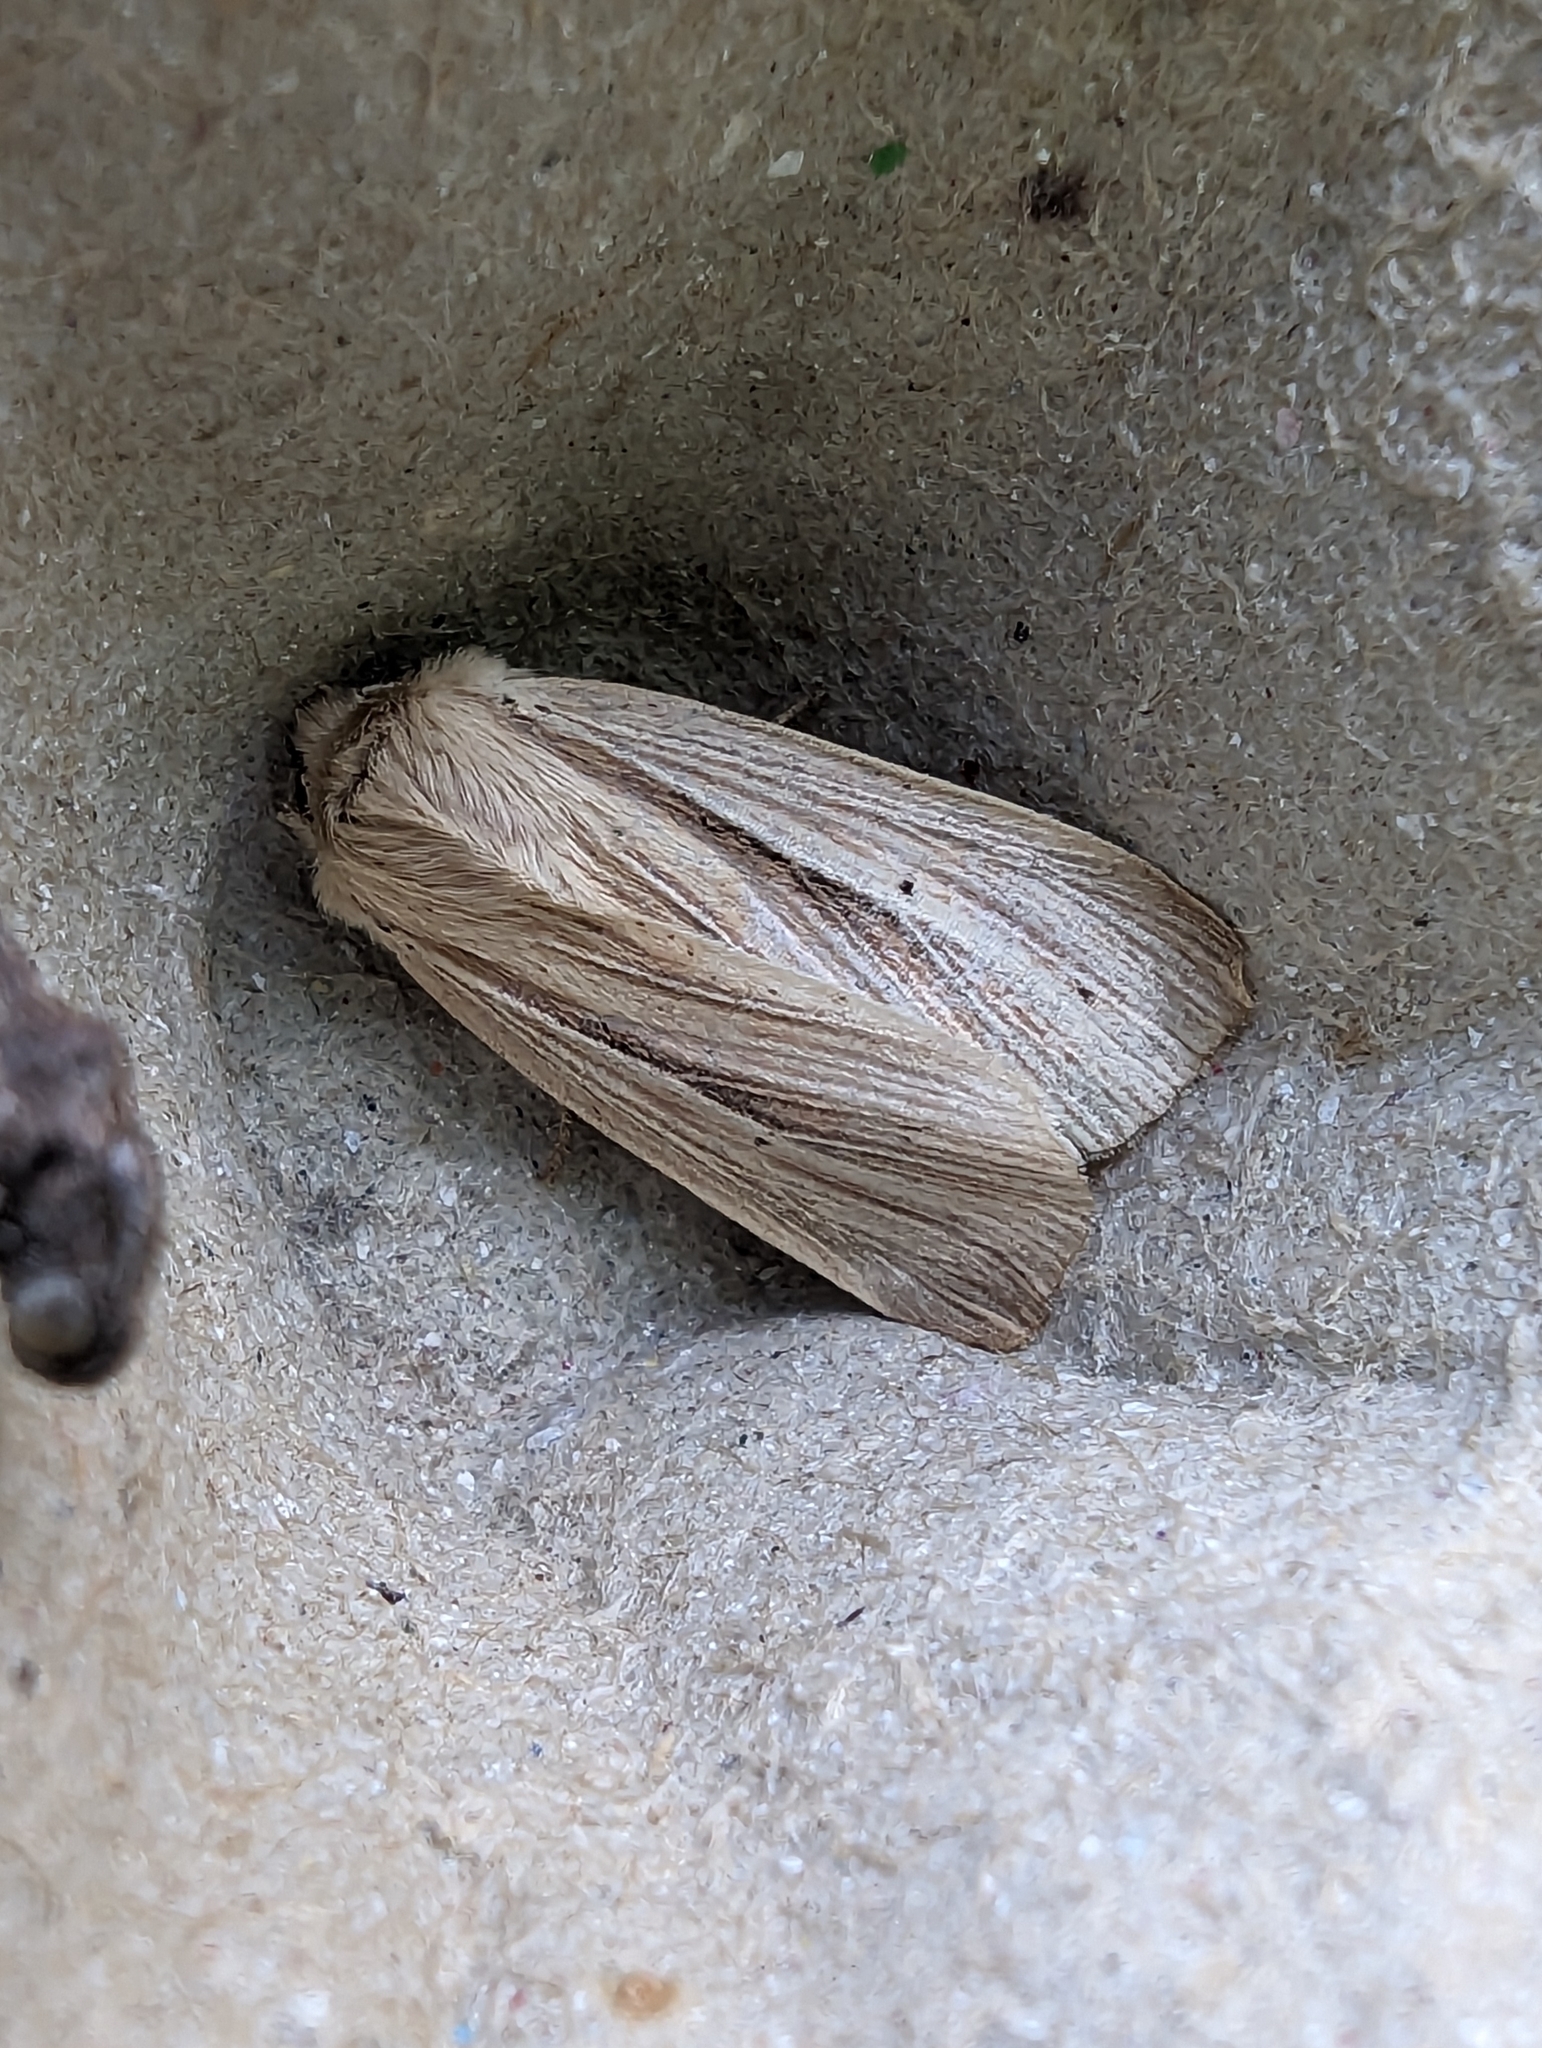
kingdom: Animalia
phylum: Arthropoda
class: Insecta
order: Lepidoptera
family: Noctuidae
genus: Mythimna
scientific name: Mythimna impura
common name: Smoky wainscot
